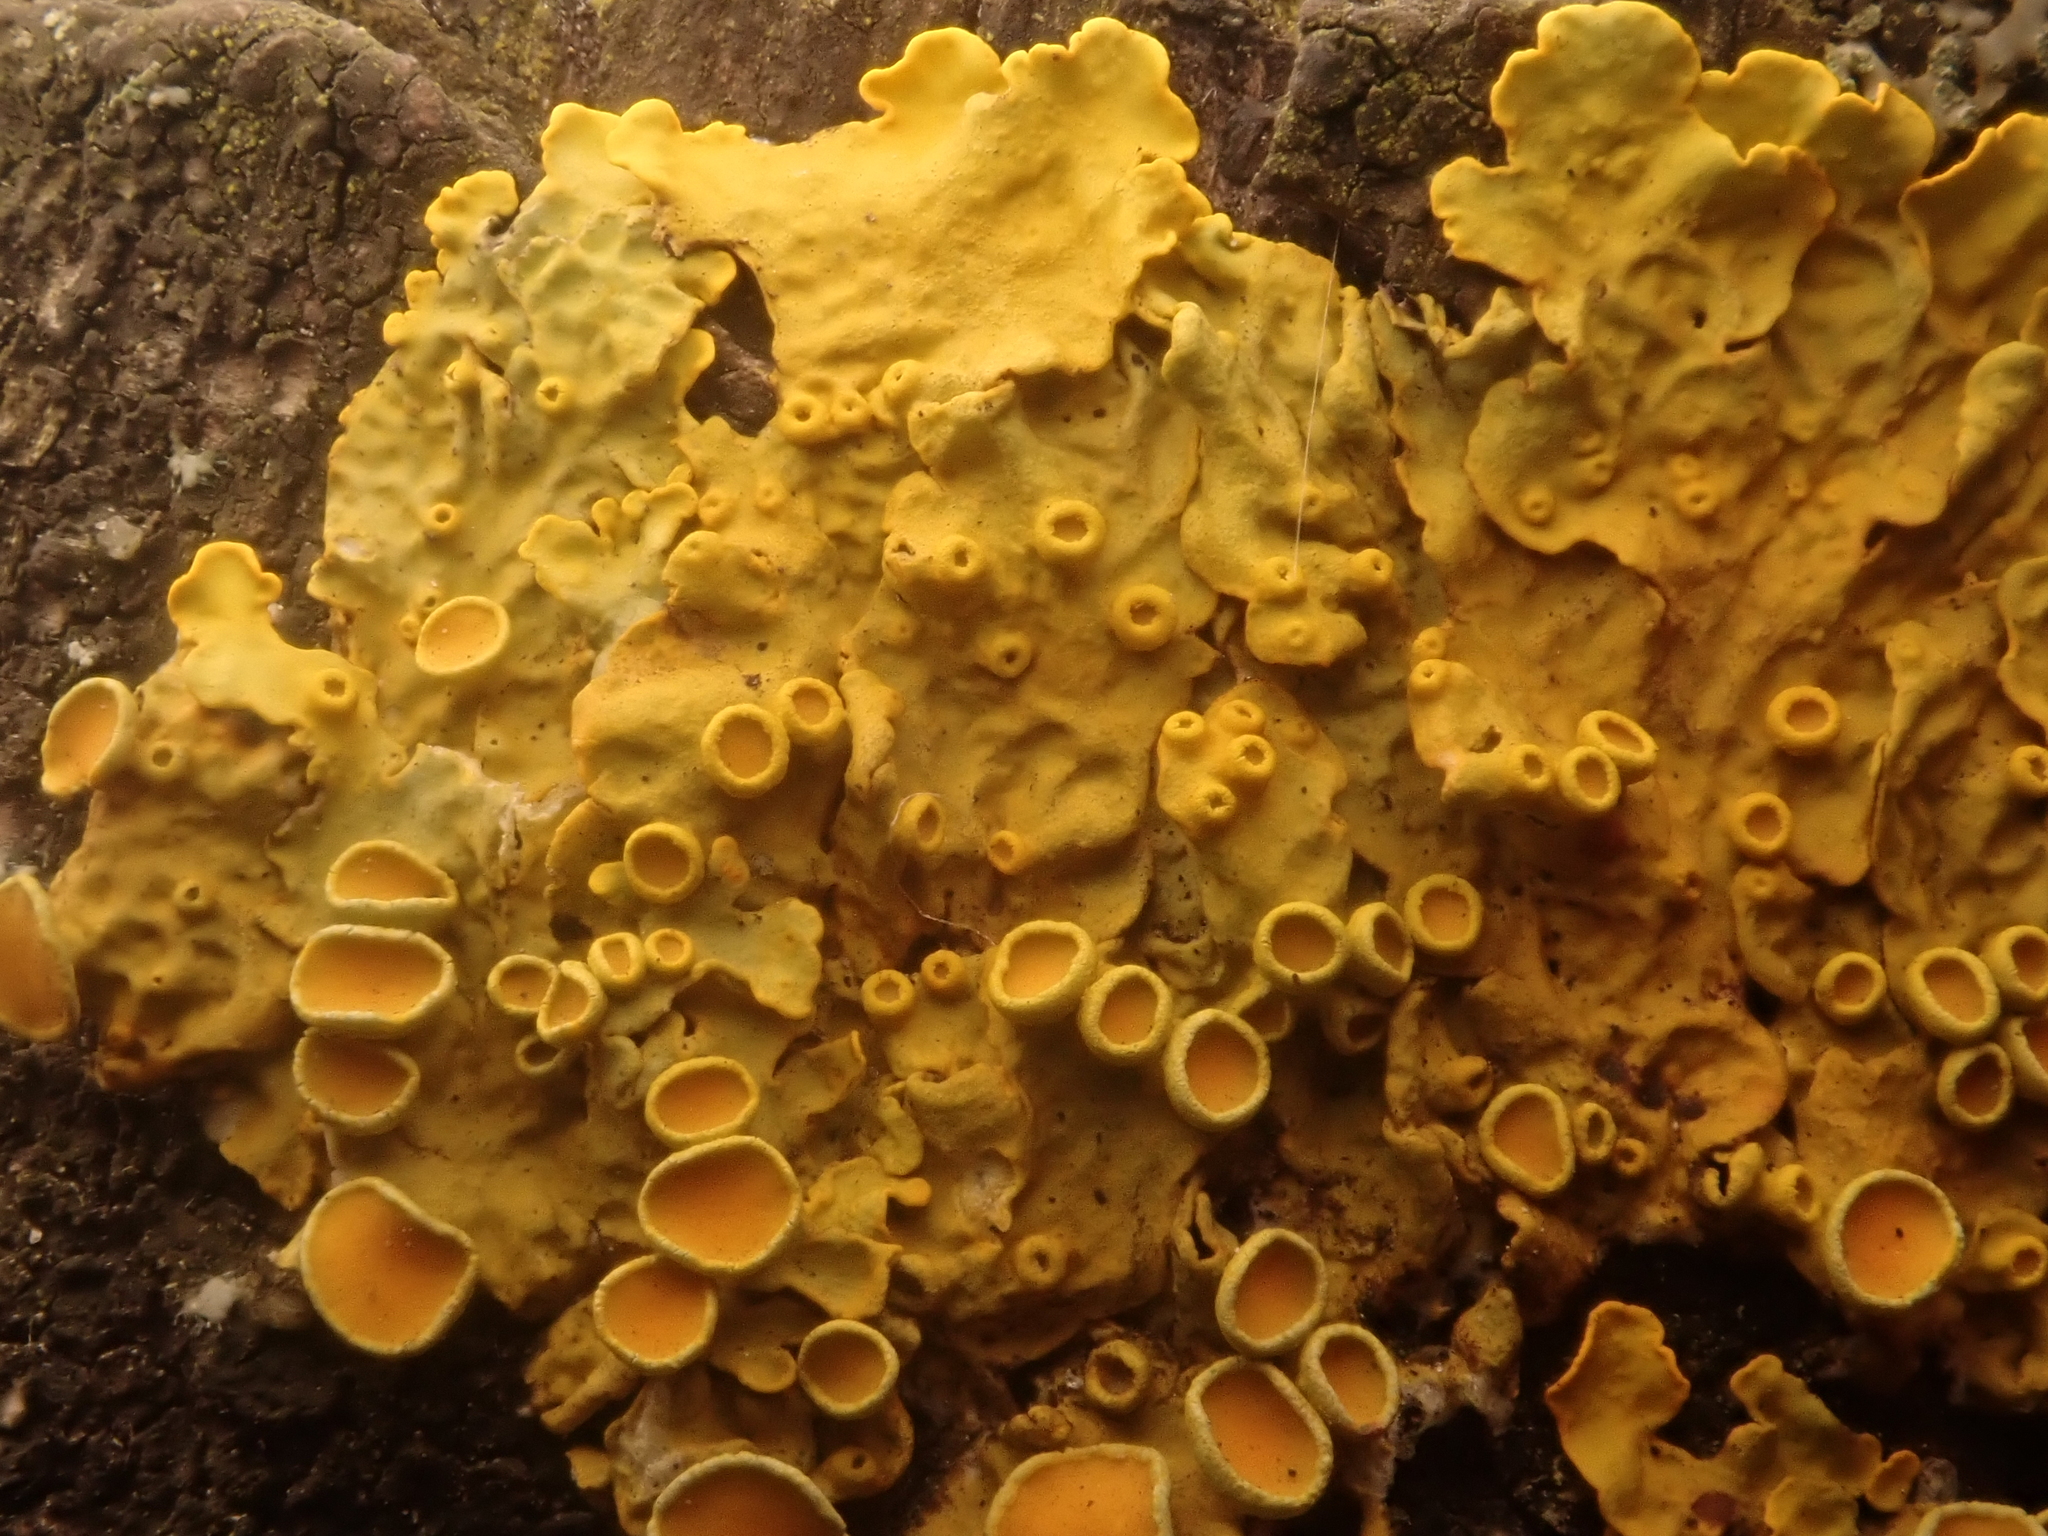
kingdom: Fungi
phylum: Ascomycota
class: Lecanoromycetes
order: Teloschistales
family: Teloschistaceae
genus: Xanthoria
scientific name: Xanthoria parietina
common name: Common orange lichen
